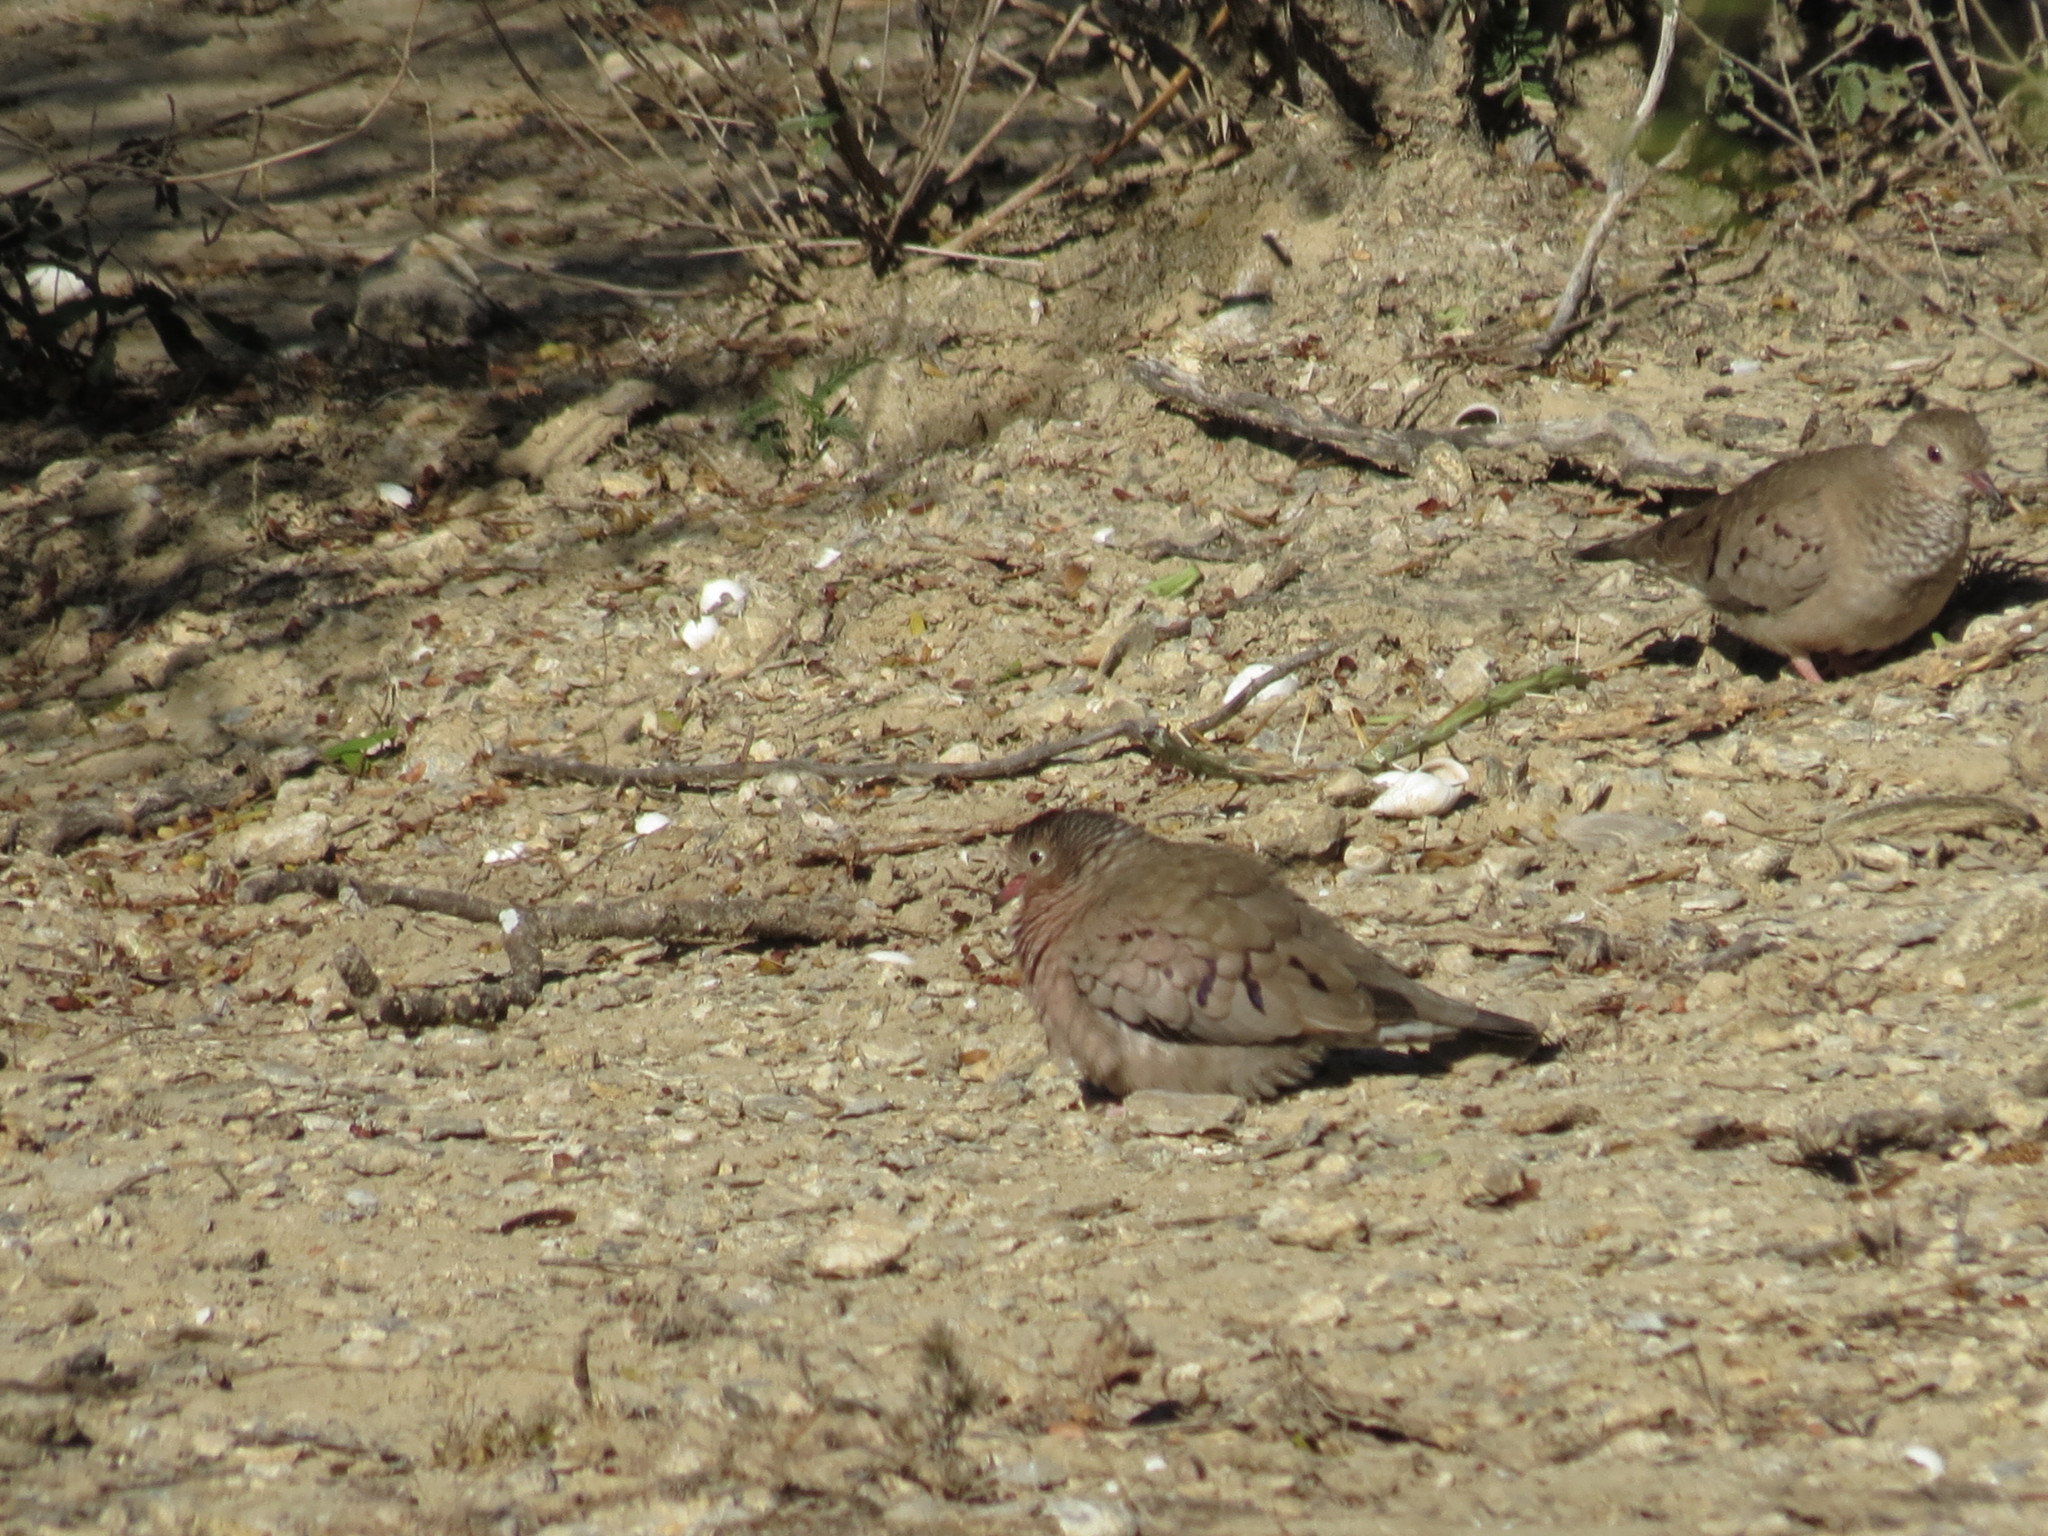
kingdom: Animalia
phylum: Chordata
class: Aves
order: Columbiformes
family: Columbidae
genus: Columbina
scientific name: Columbina passerina
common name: Common ground-dove
